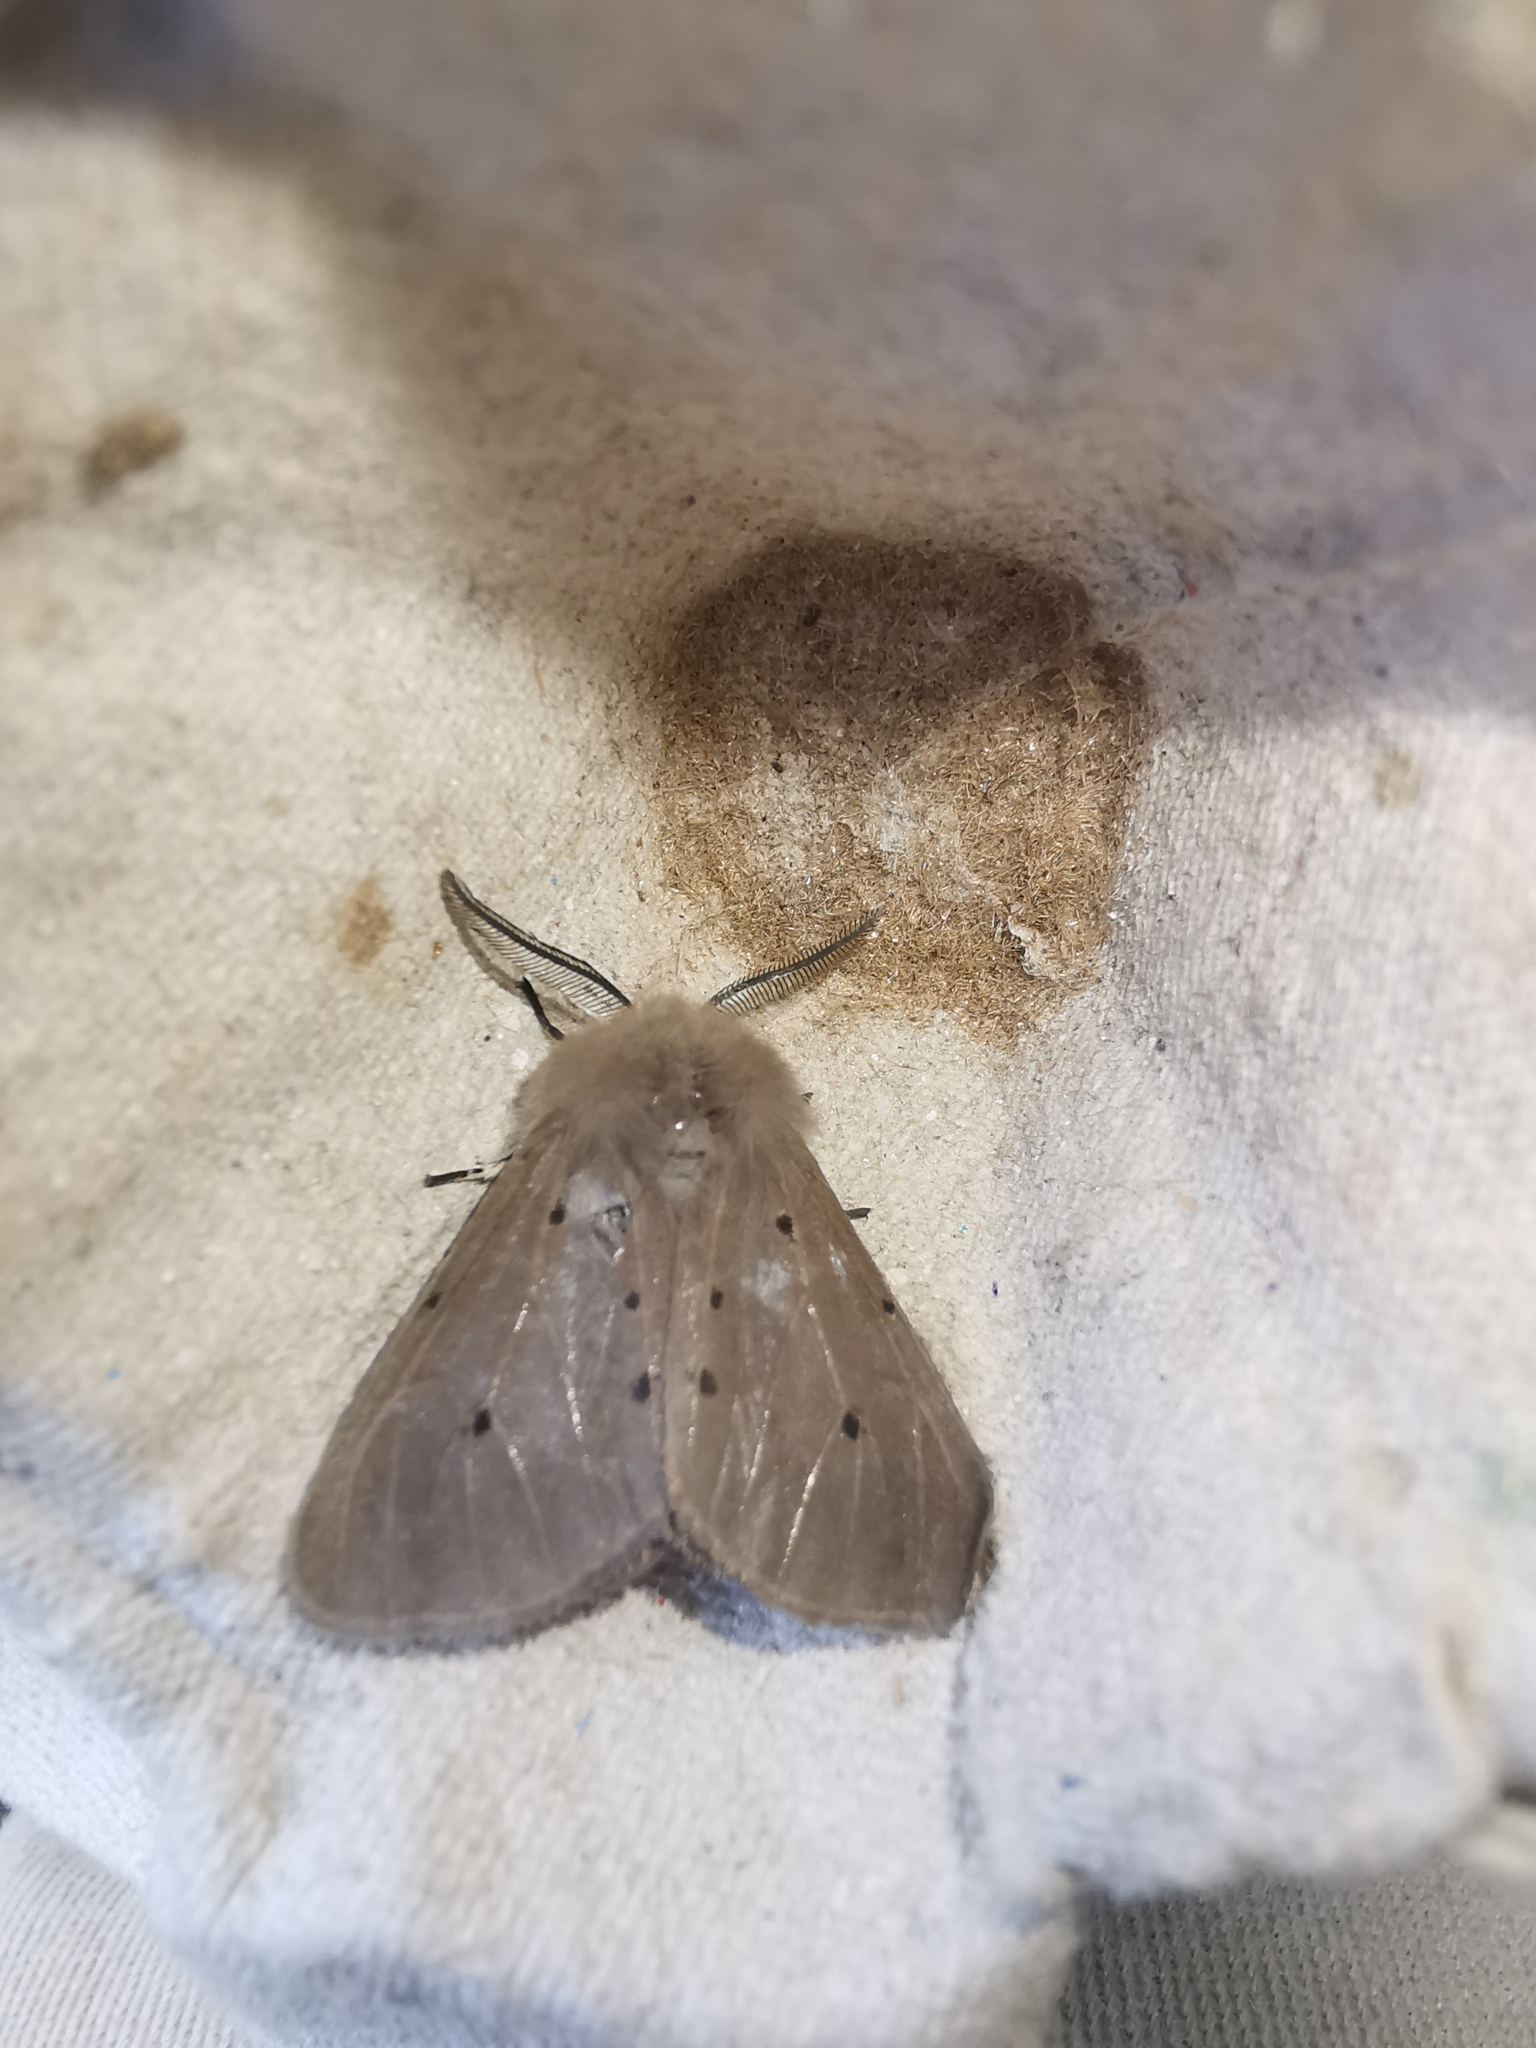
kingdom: Animalia
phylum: Arthropoda
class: Insecta
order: Lepidoptera
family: Erebidae
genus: Diaphora
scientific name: Diaphora mendica
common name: Muslin moth
